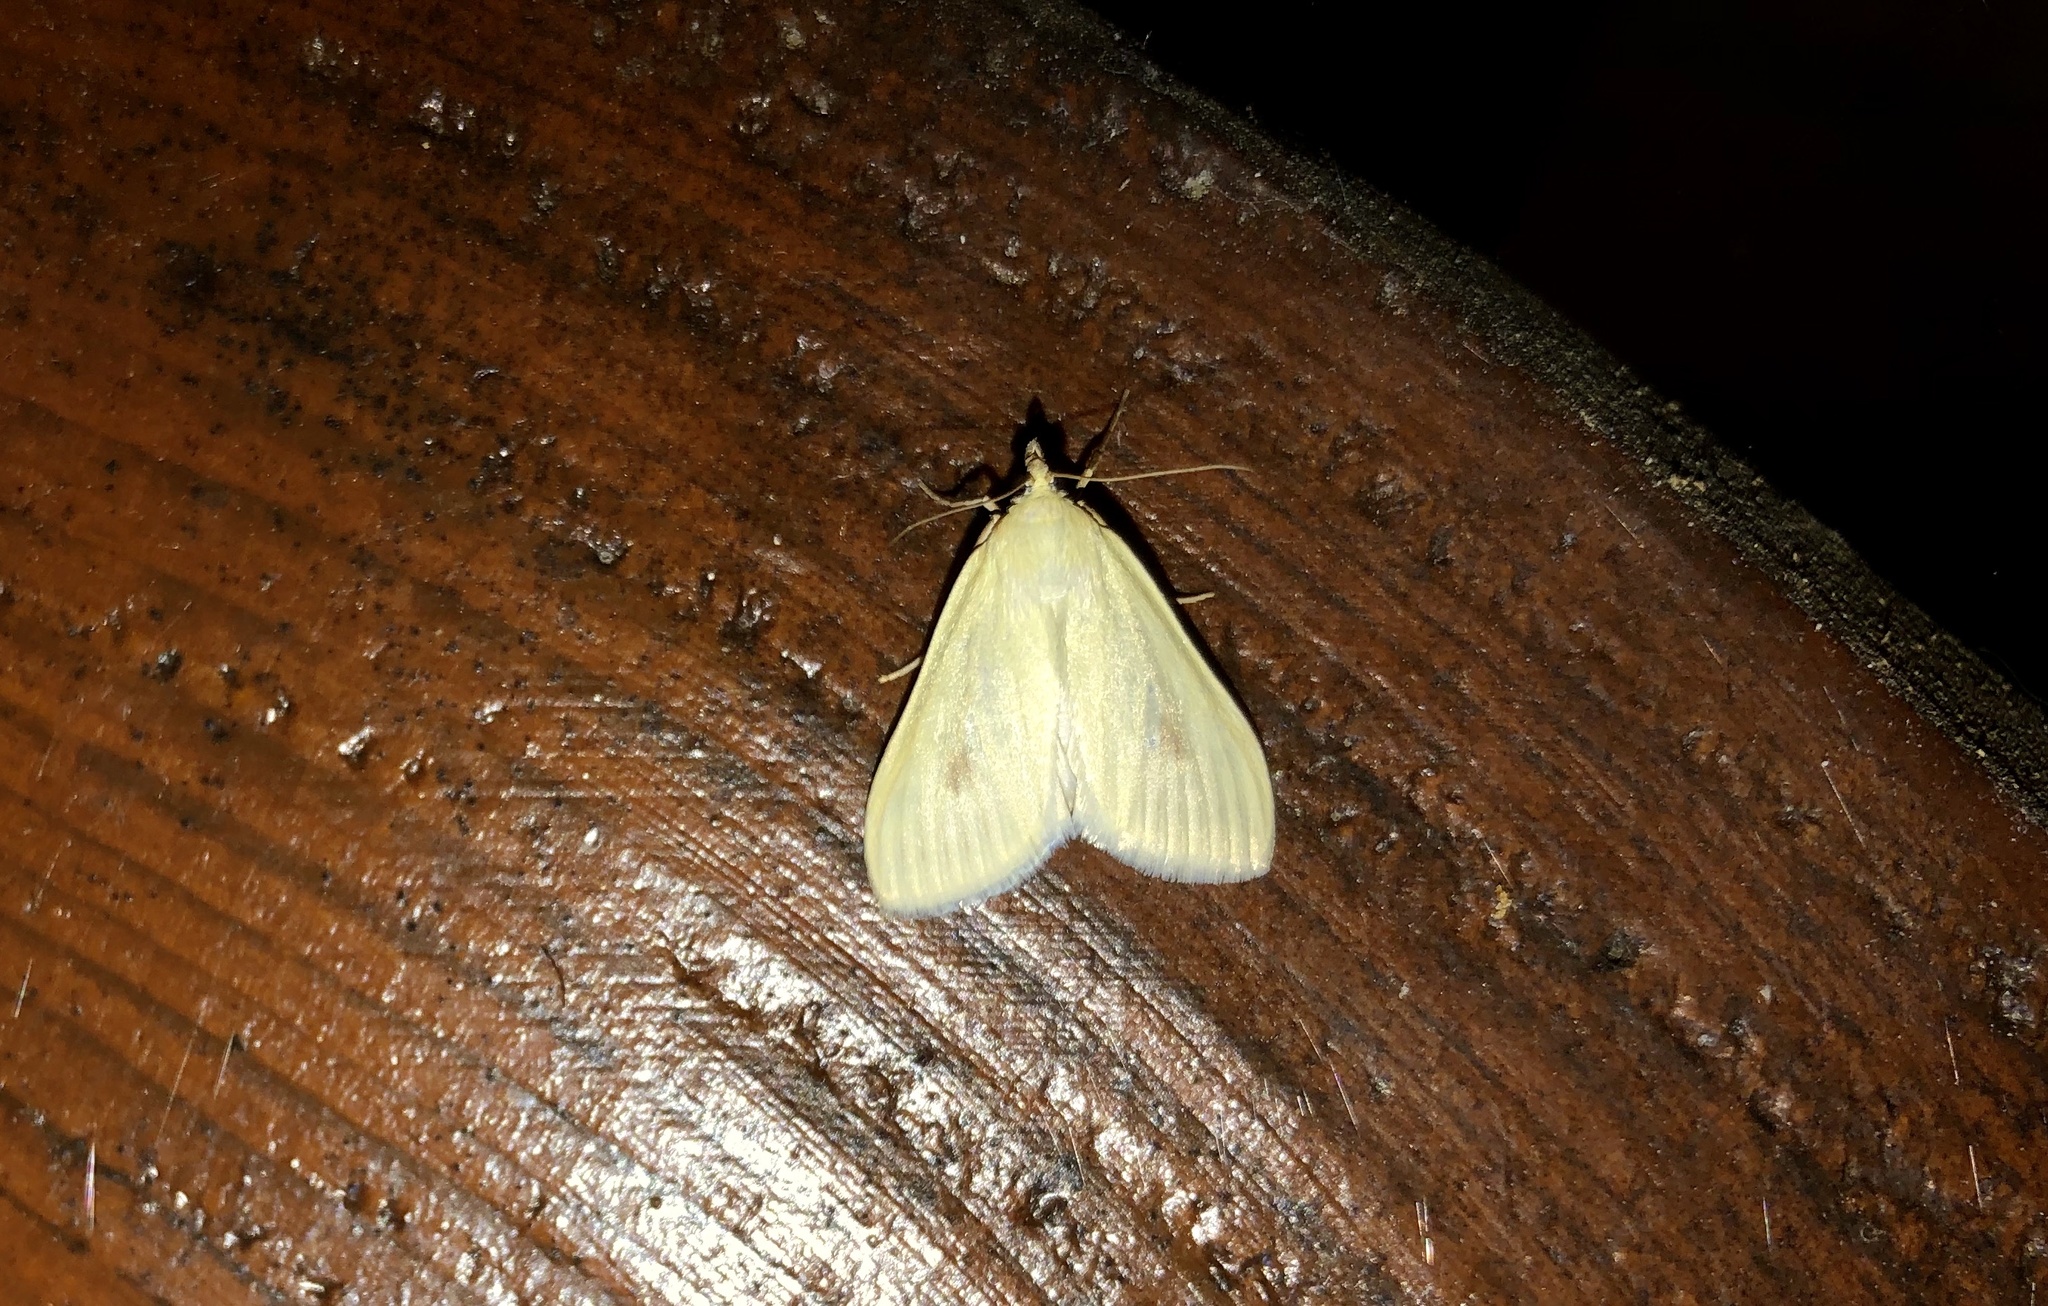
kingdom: Animalia
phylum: Arthropoda
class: Insecta
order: Lepidoptera
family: Crambidae
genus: Sitochroa
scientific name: Sitochroa palealis
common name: Greenish-yellow sitochroa moth
